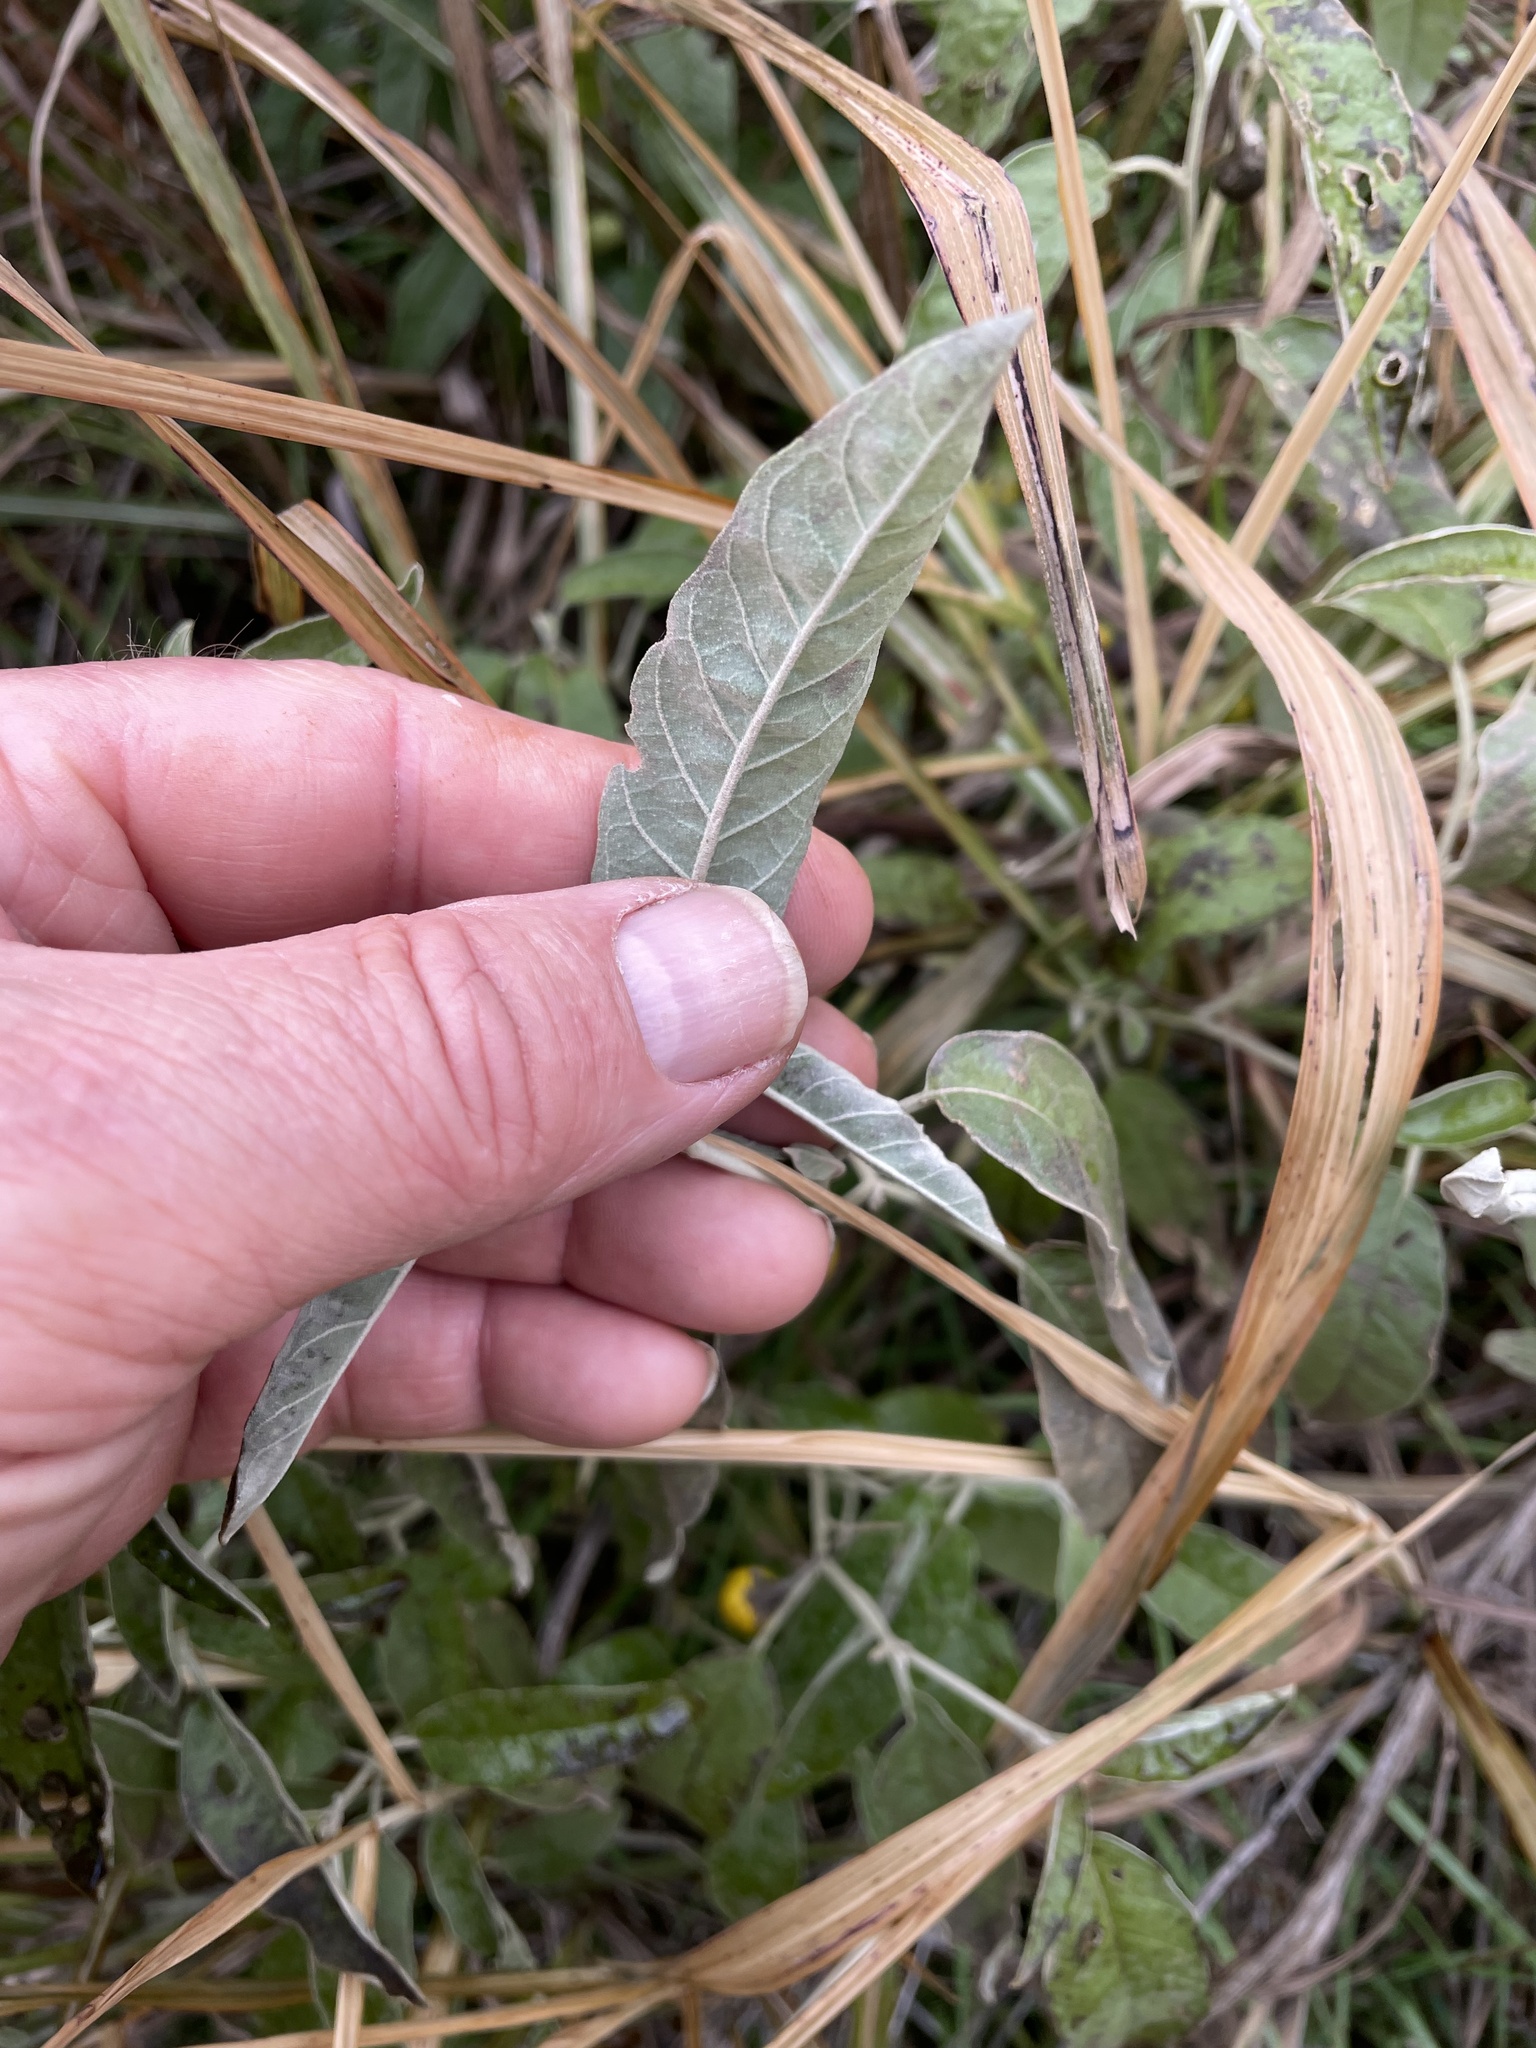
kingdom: Plantae
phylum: Tracheophyta
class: Magnoliopsida
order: Solanales
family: Solanaceae
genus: Solanum
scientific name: Solanum elaeagnifolium
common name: Silverleaf nightshade
